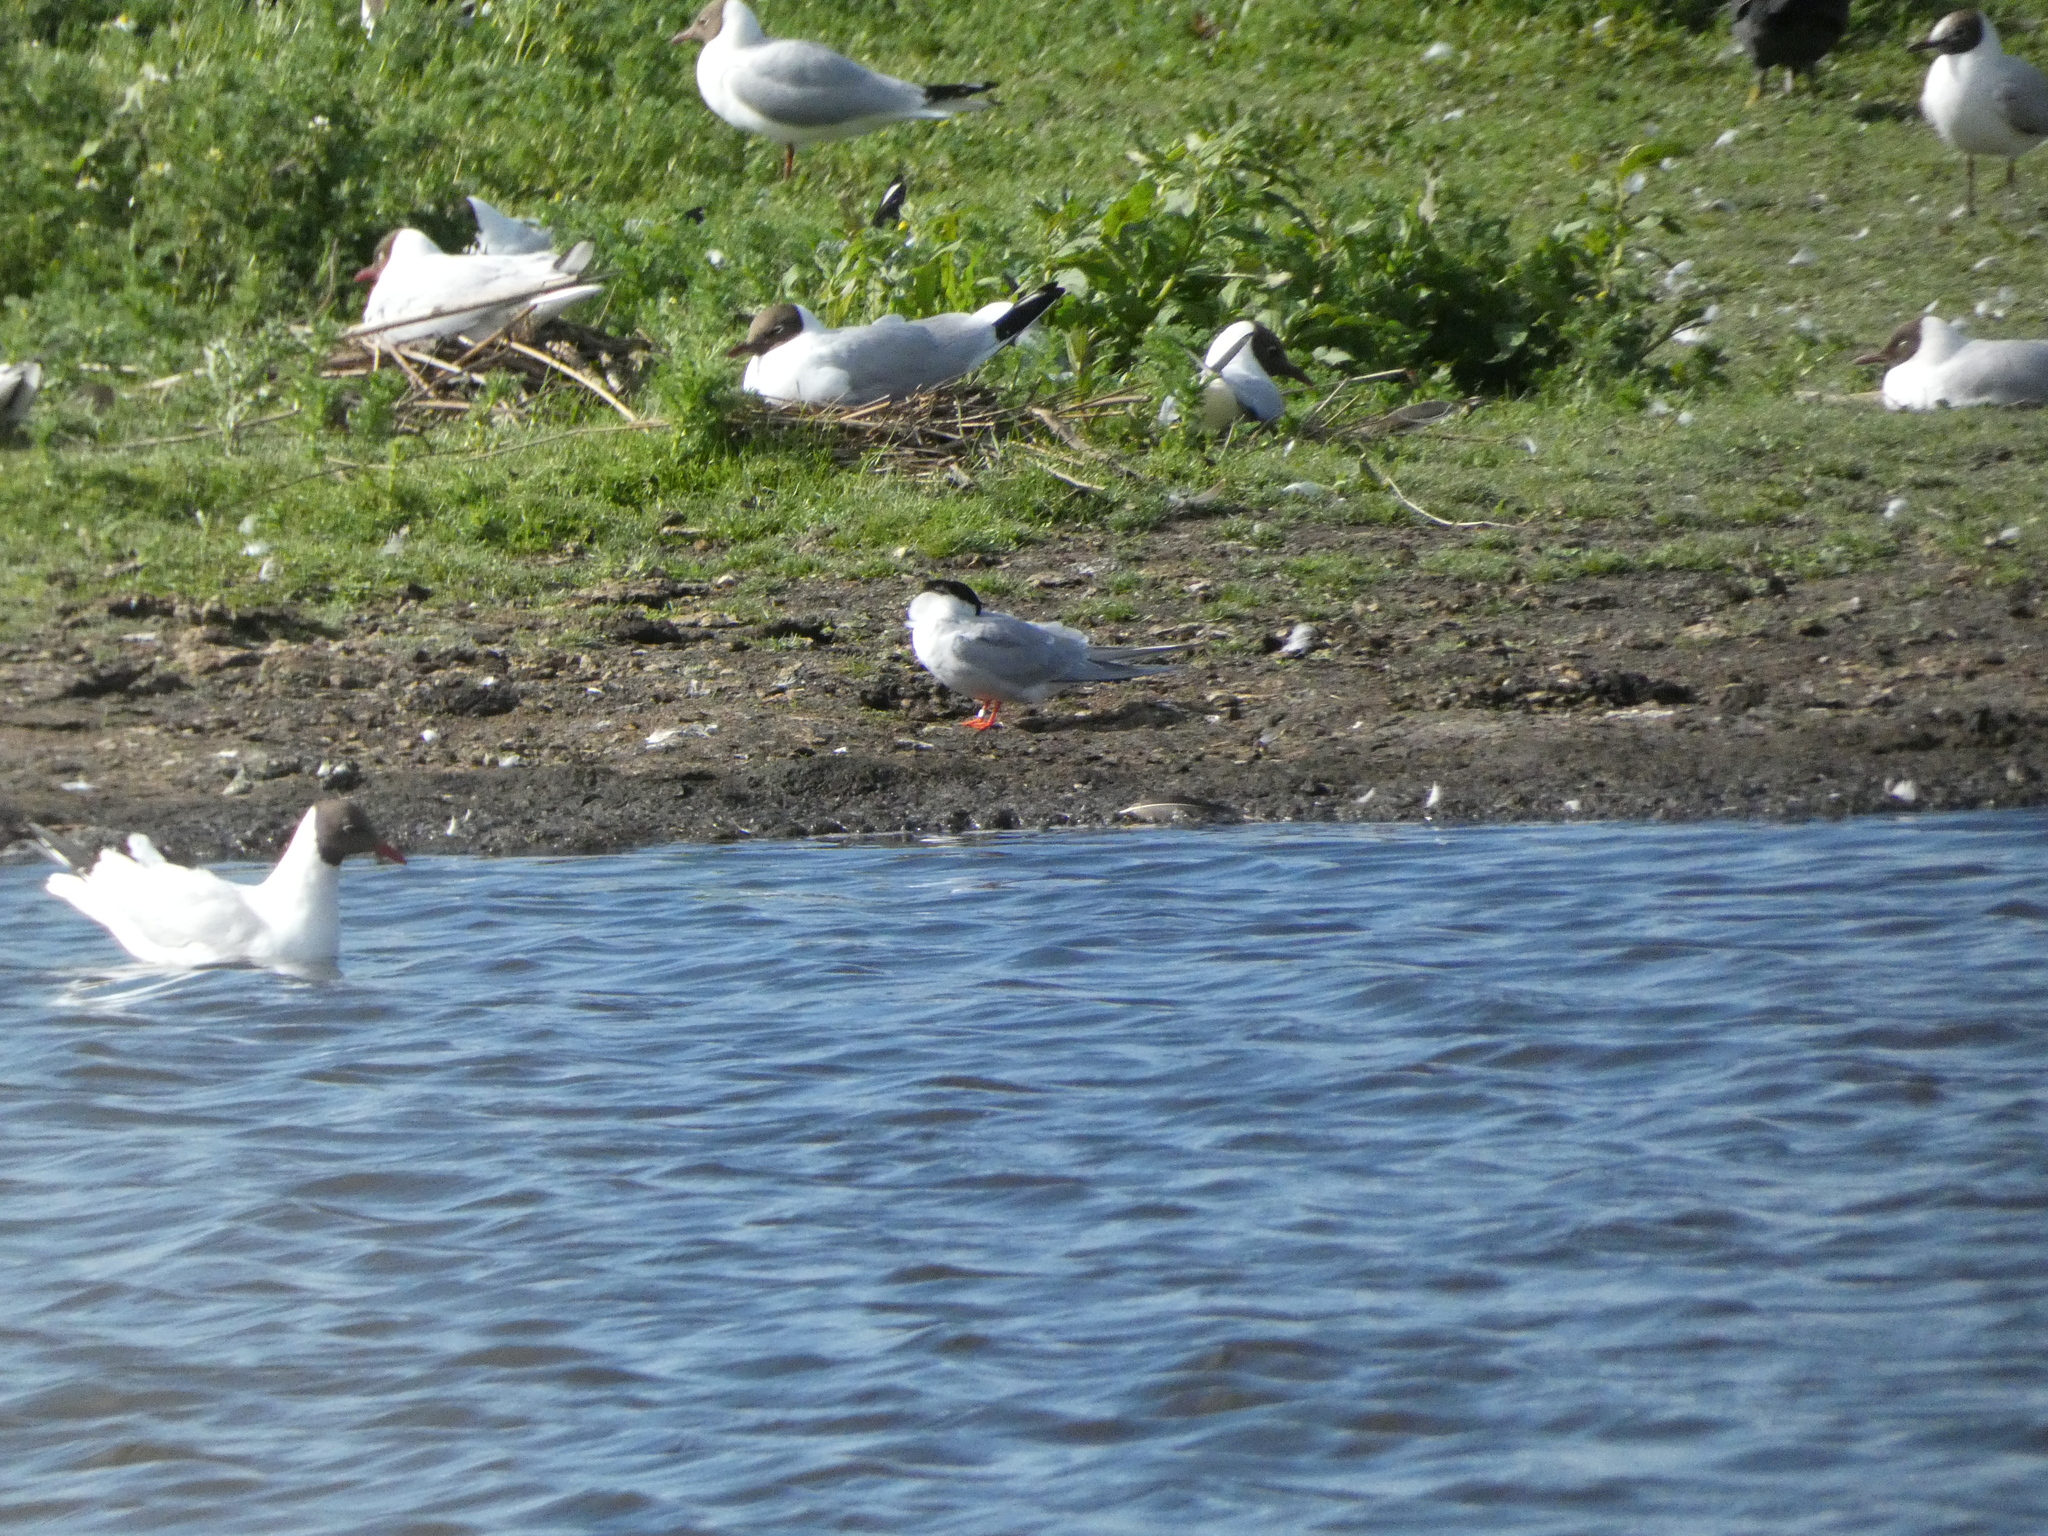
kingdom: Animalia
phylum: Chordata
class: Aves
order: Charadriiformes
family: Laridae
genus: Sterna
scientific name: Sterna hirundo
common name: Common tern
